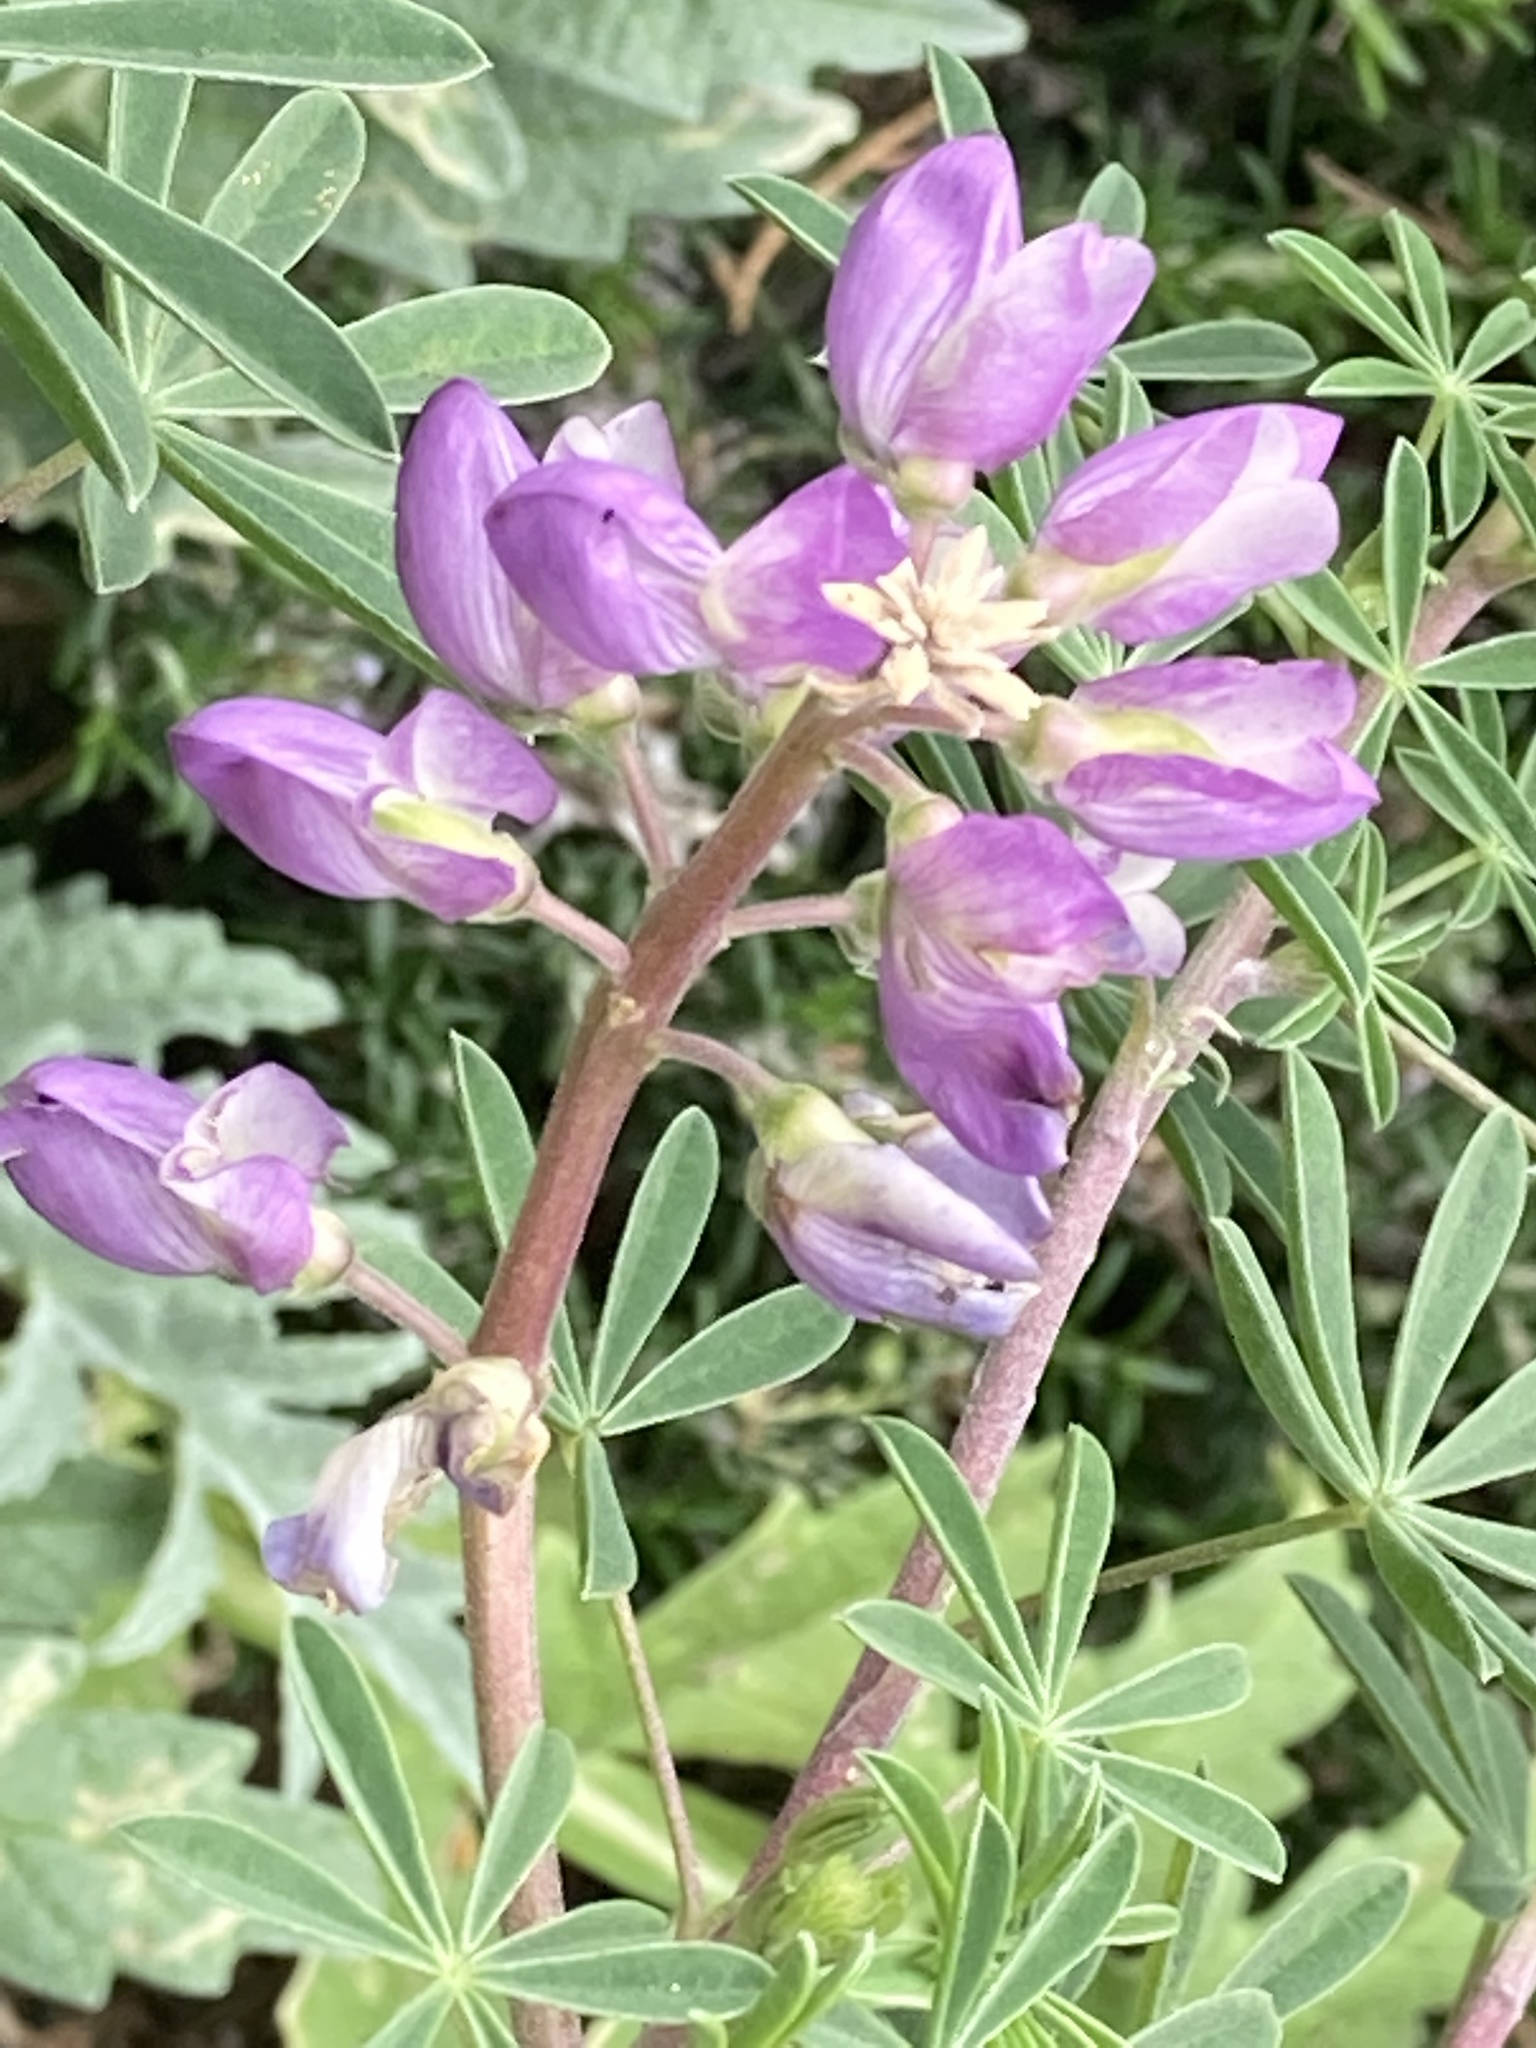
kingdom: Plantae
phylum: Tracheophyta
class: Magnoliopsida
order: Fabales
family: Fabaceae
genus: Lupinus
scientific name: Lupinus arboreus
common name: Yellow bush lupine
